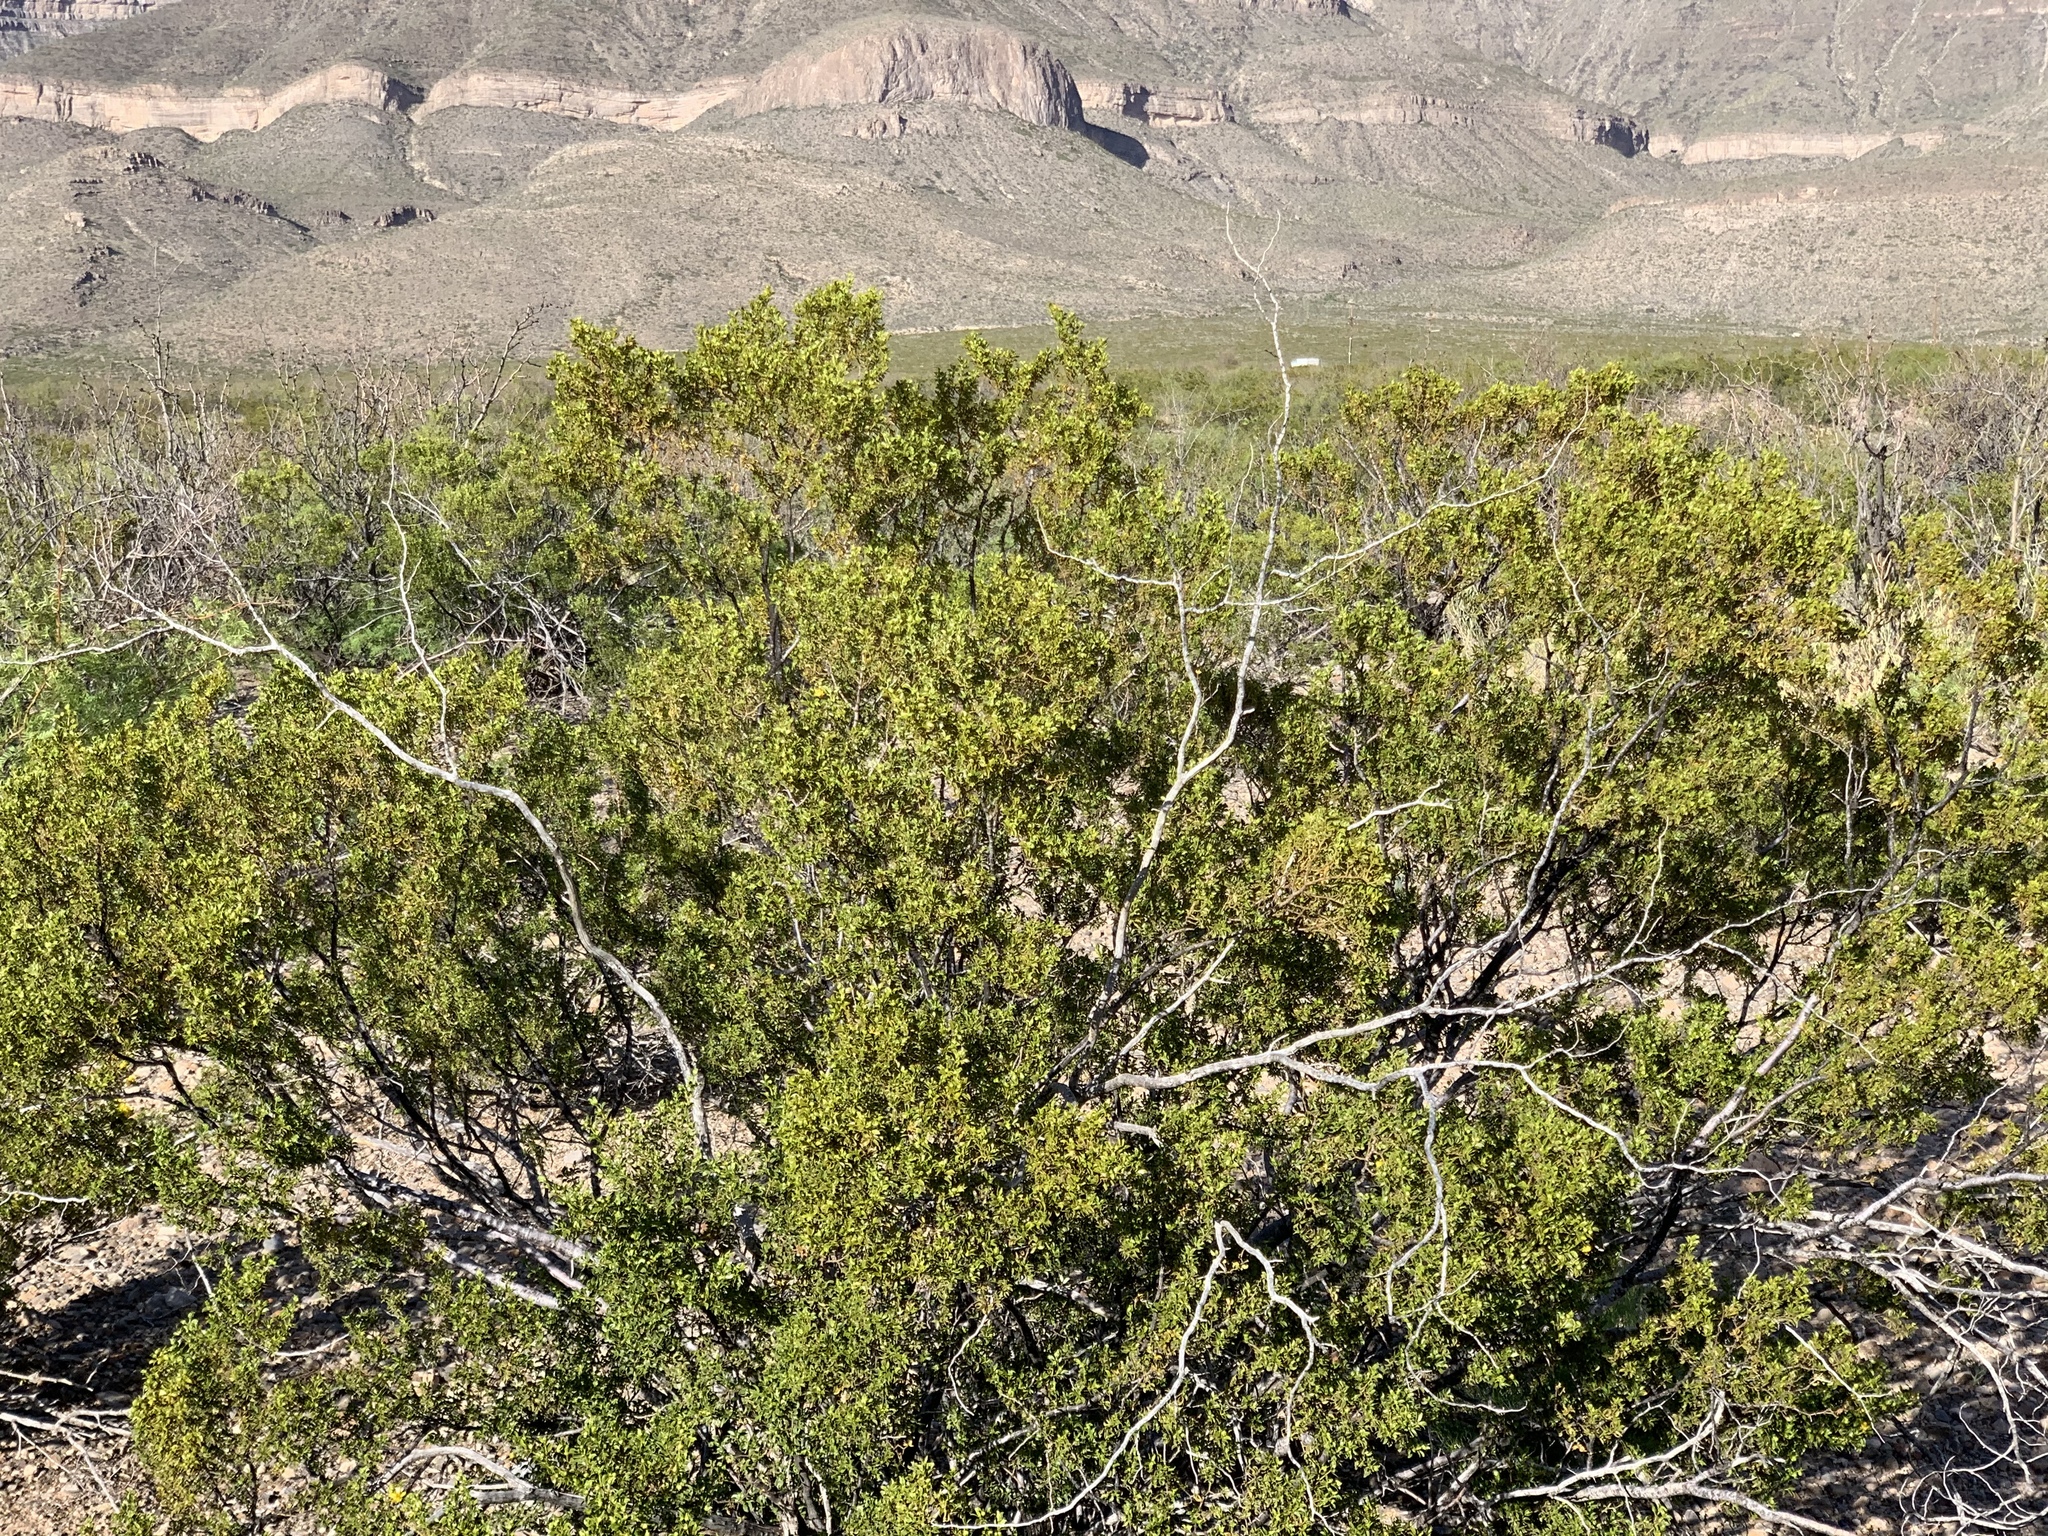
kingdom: Plantae
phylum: Tracheophyta
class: Magnoliopsida
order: Zygophyllales
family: Zygophyllaceae
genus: Larrea
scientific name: Larrea tridentata
